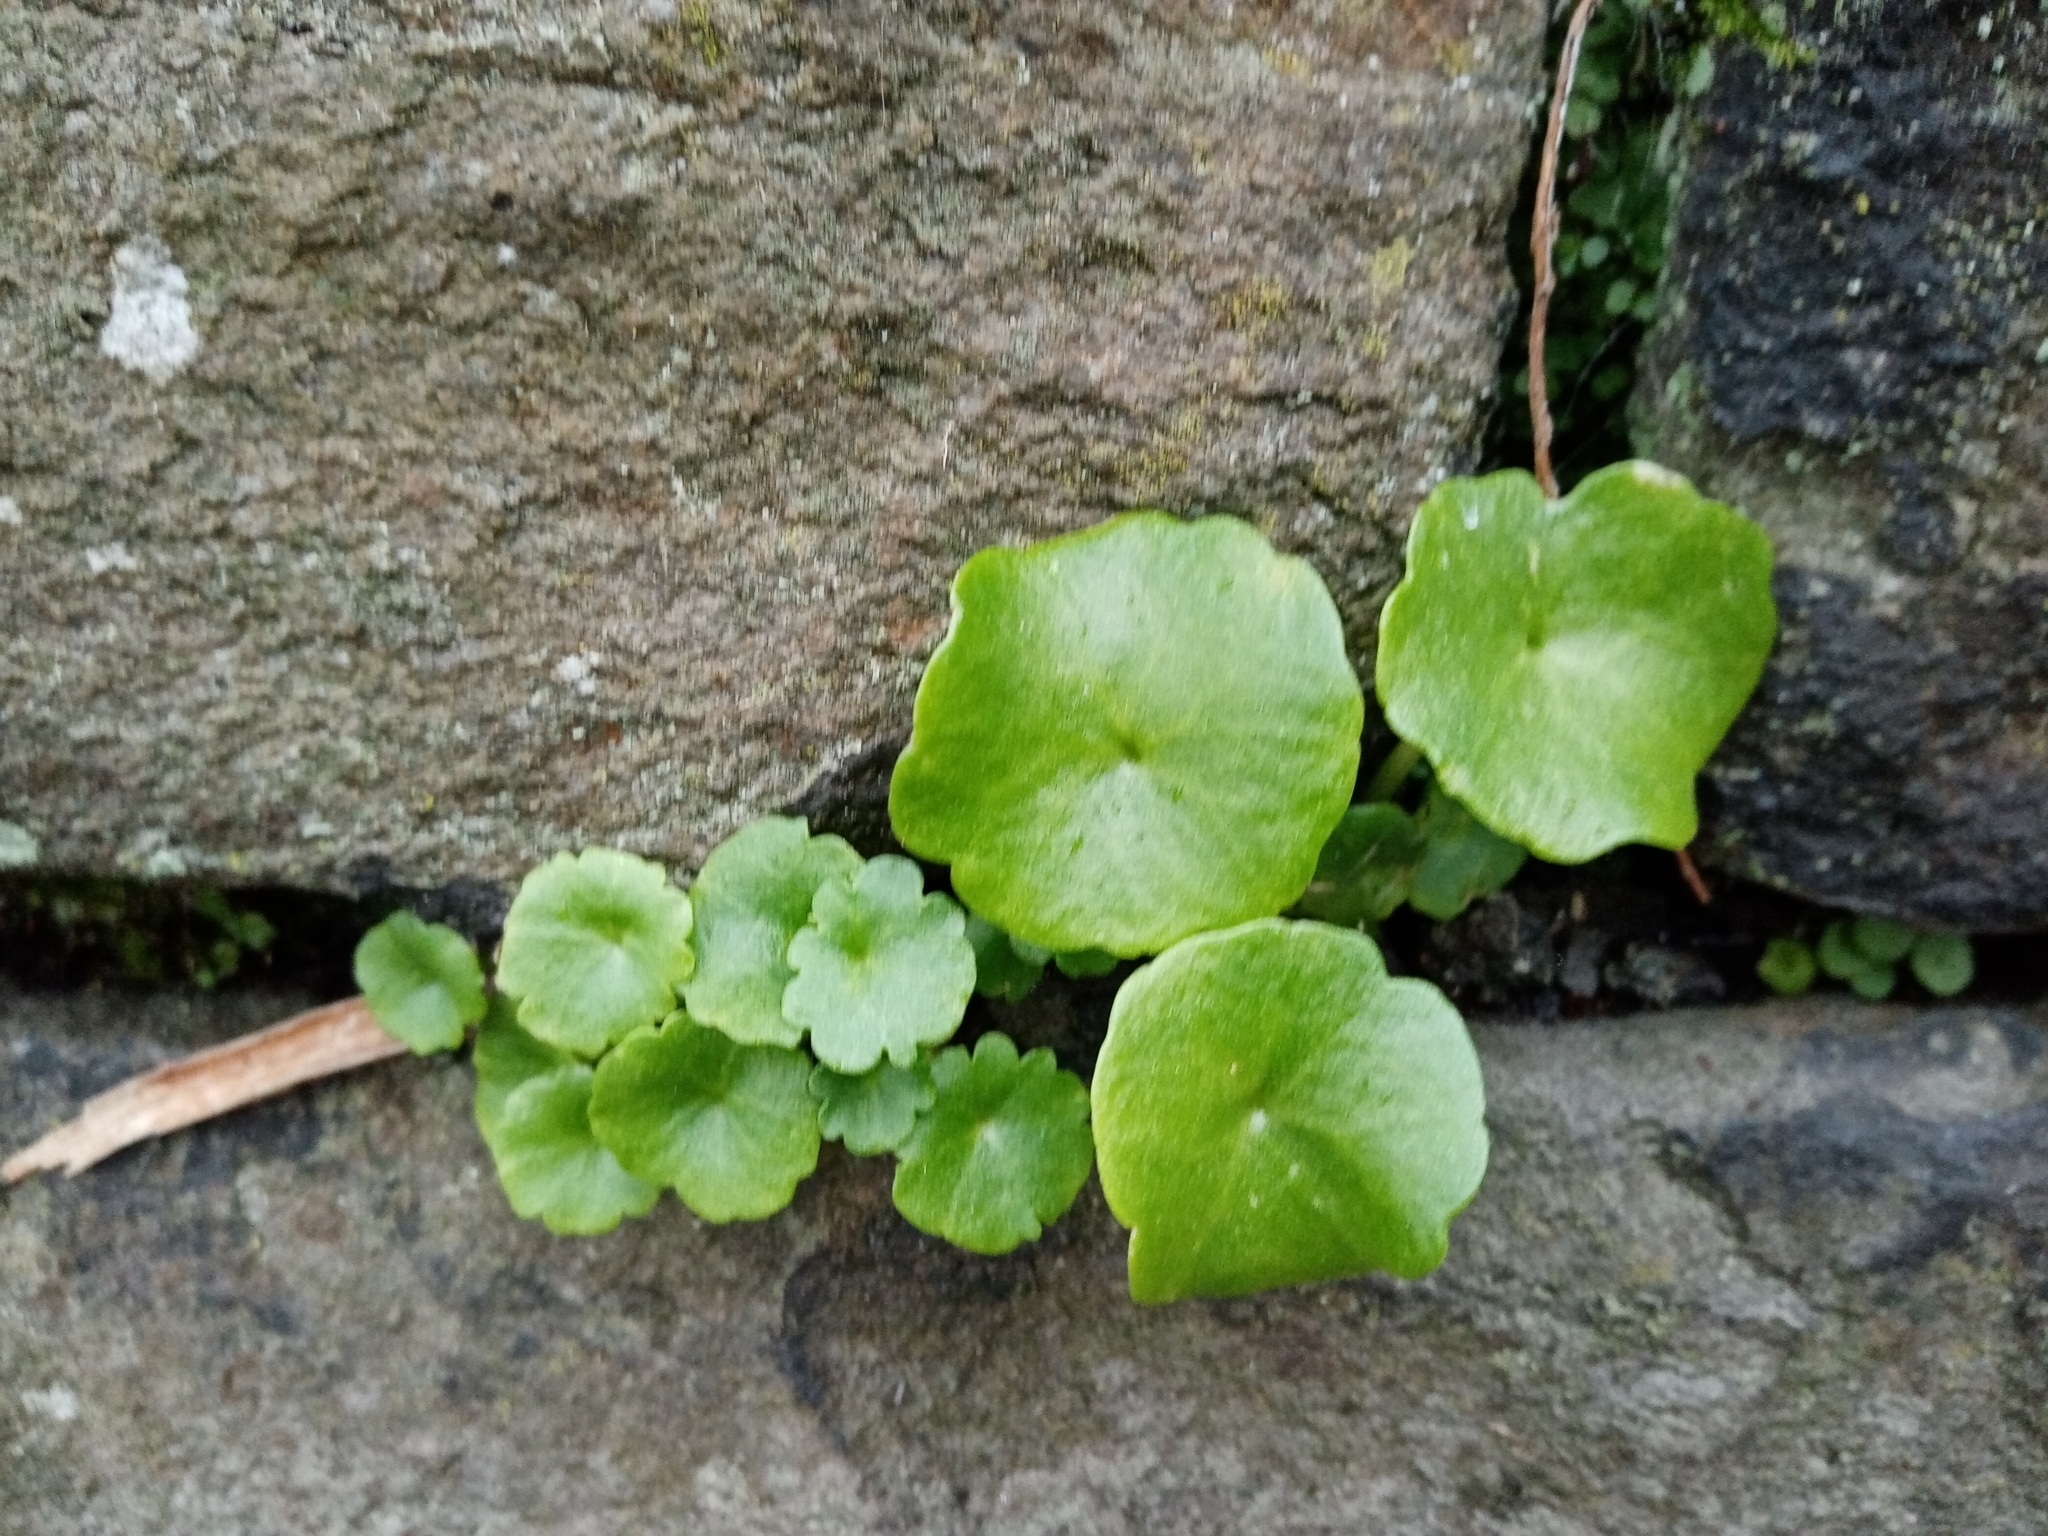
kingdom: Plantae
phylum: Tracheophyta
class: Magnoliopsida
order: Saxifragales
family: Crassulaceae
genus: Umbilicus
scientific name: Umbilicus rupestris
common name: Navelwort
